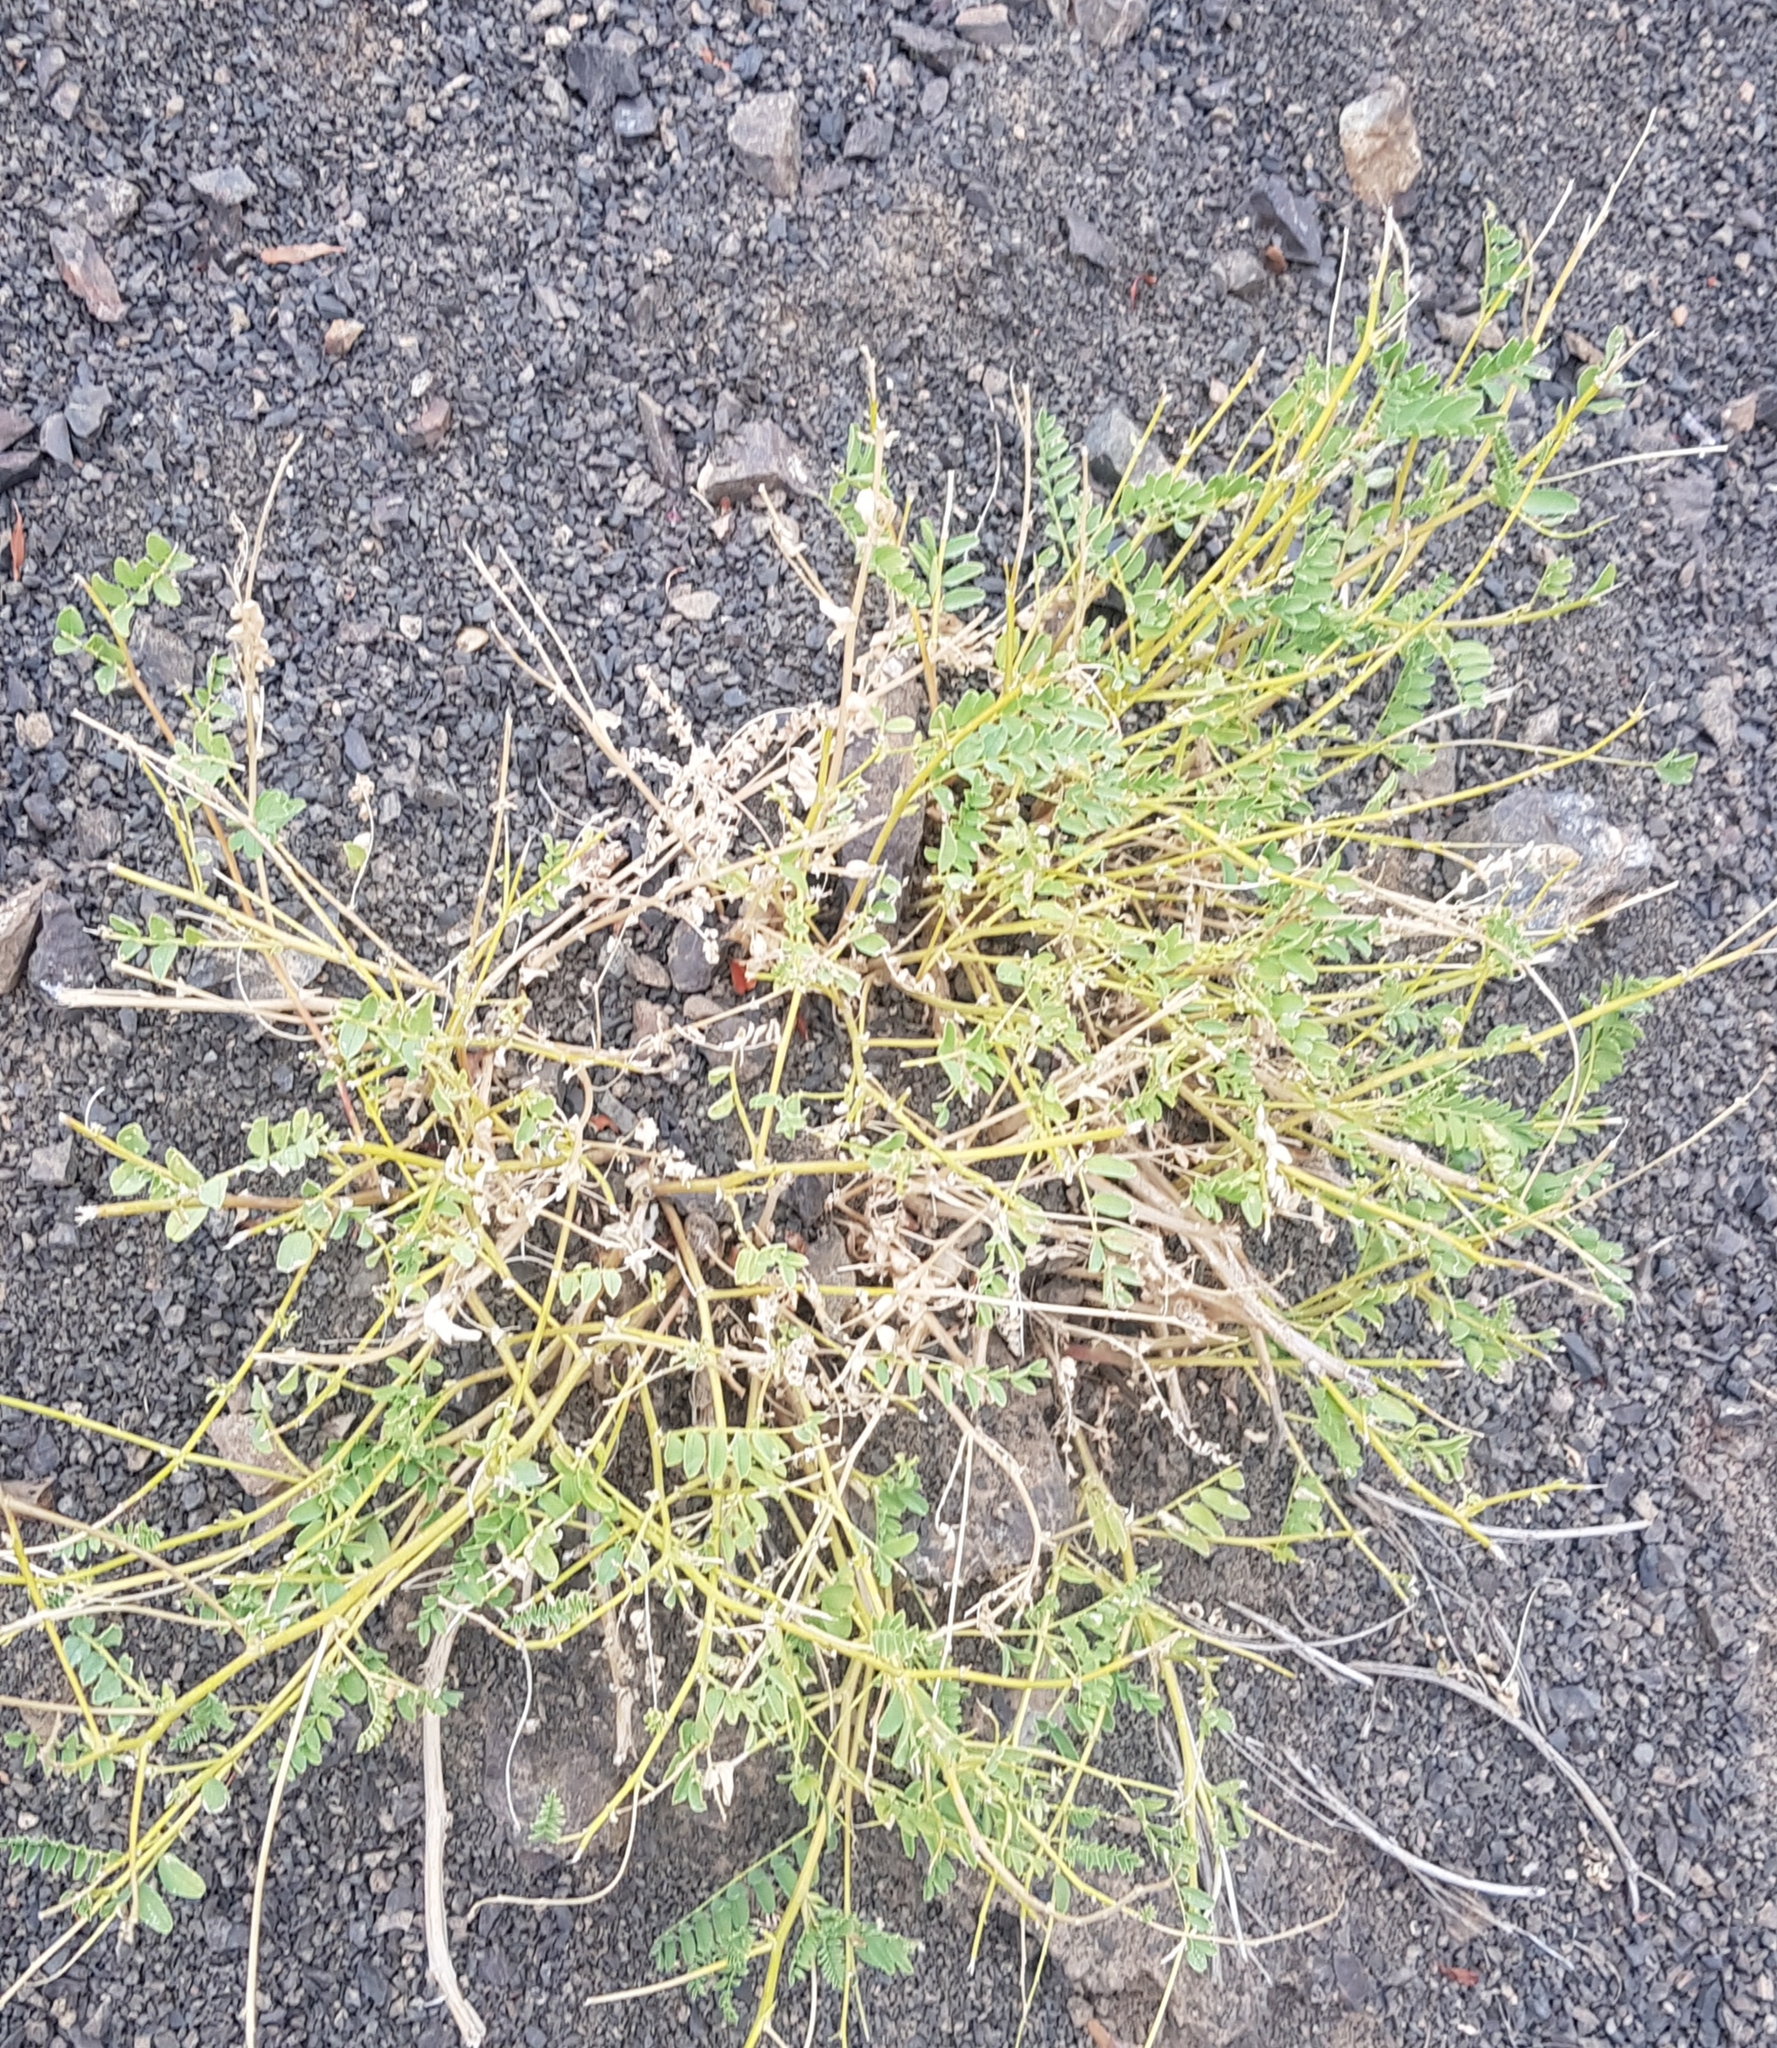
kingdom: Plantae
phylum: Tracheophyta
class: Magnoliopsida
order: Fabales
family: Fabaceae
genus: Astragalus
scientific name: Astragalus chinensis
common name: Chinese milkvetch
